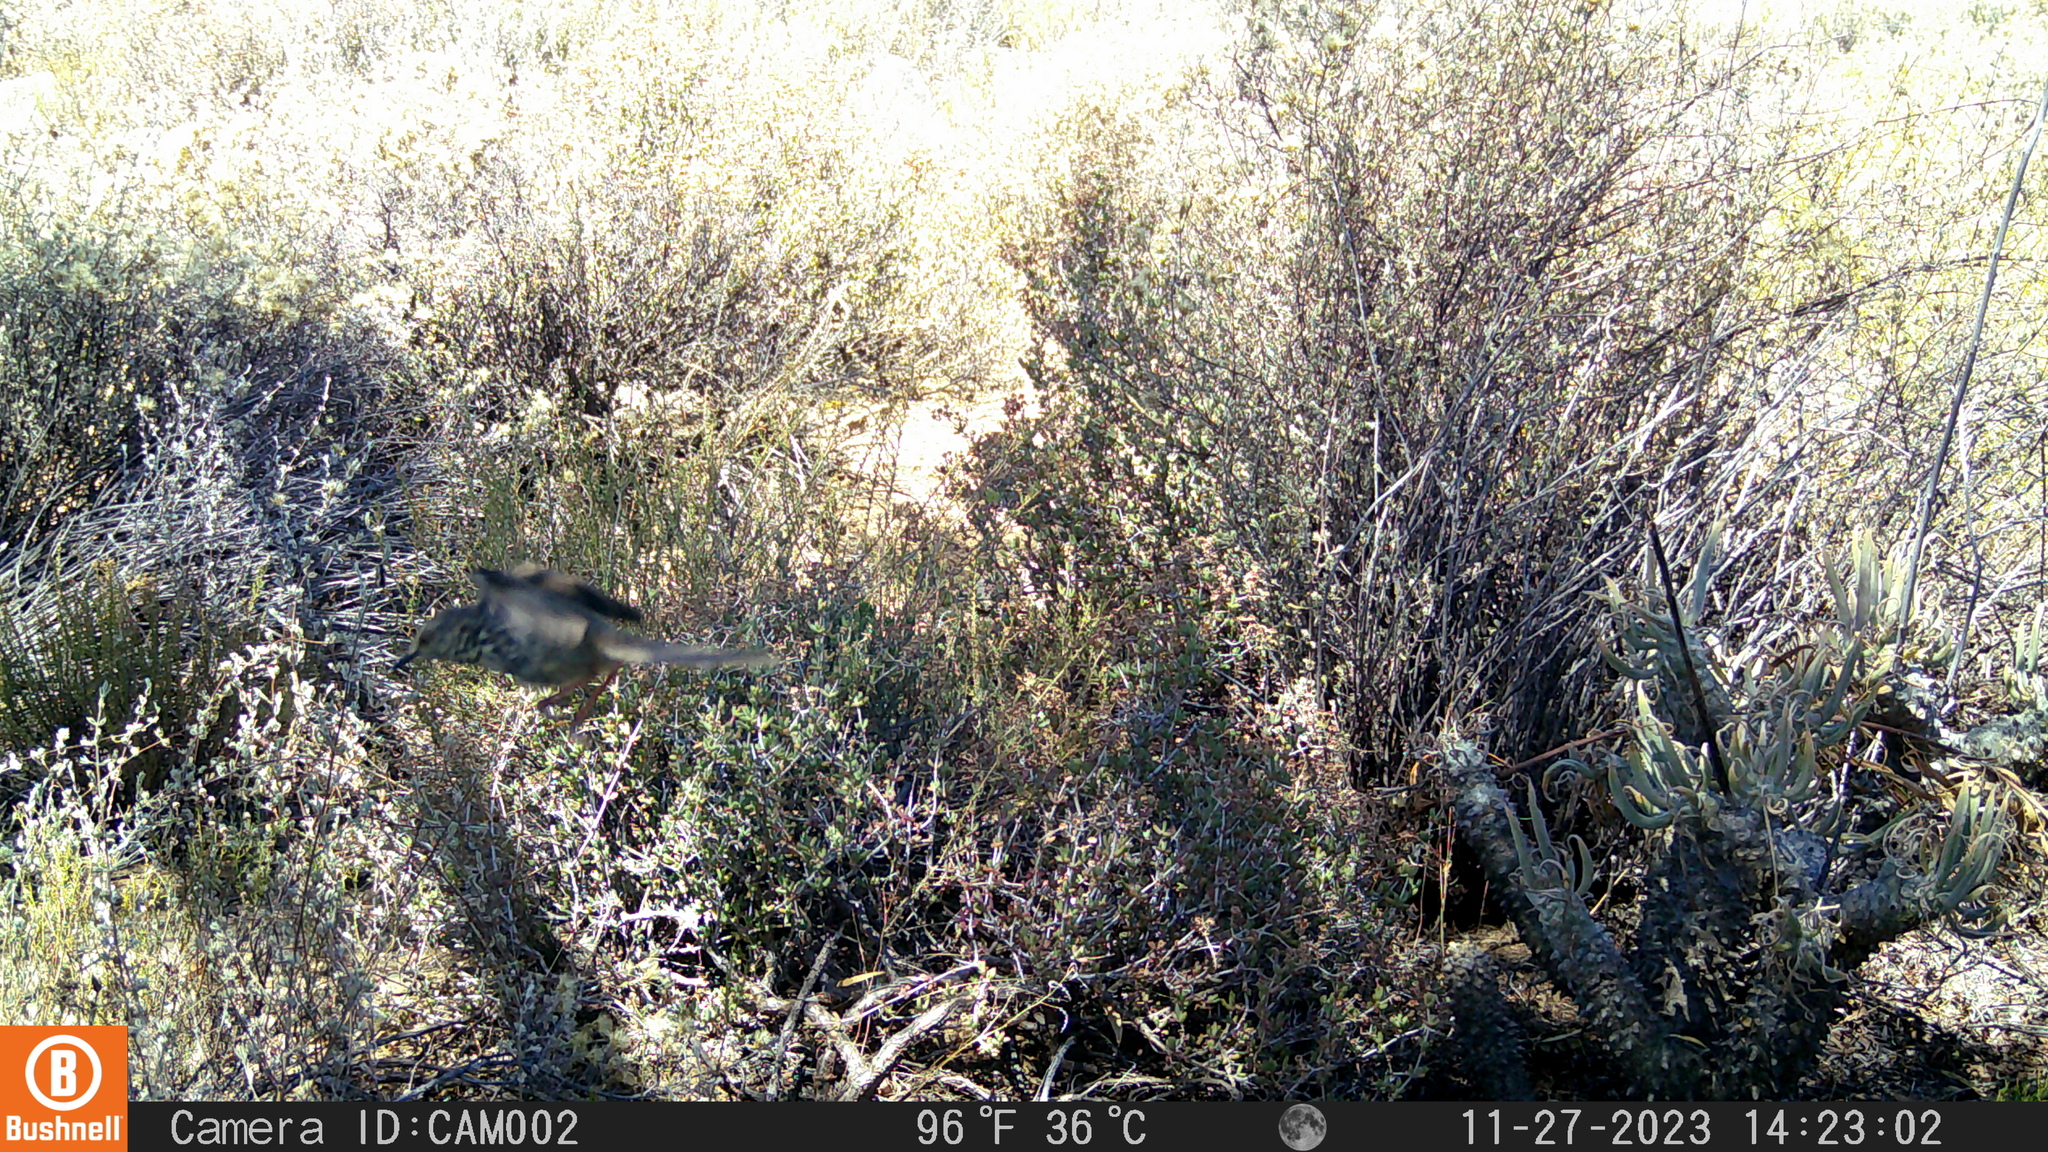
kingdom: Animalia
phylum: Chordata
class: Aves
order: Passeriformes
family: Cisticolidae
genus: Prinia
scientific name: Prinia maculosa
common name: Karoo prinia
